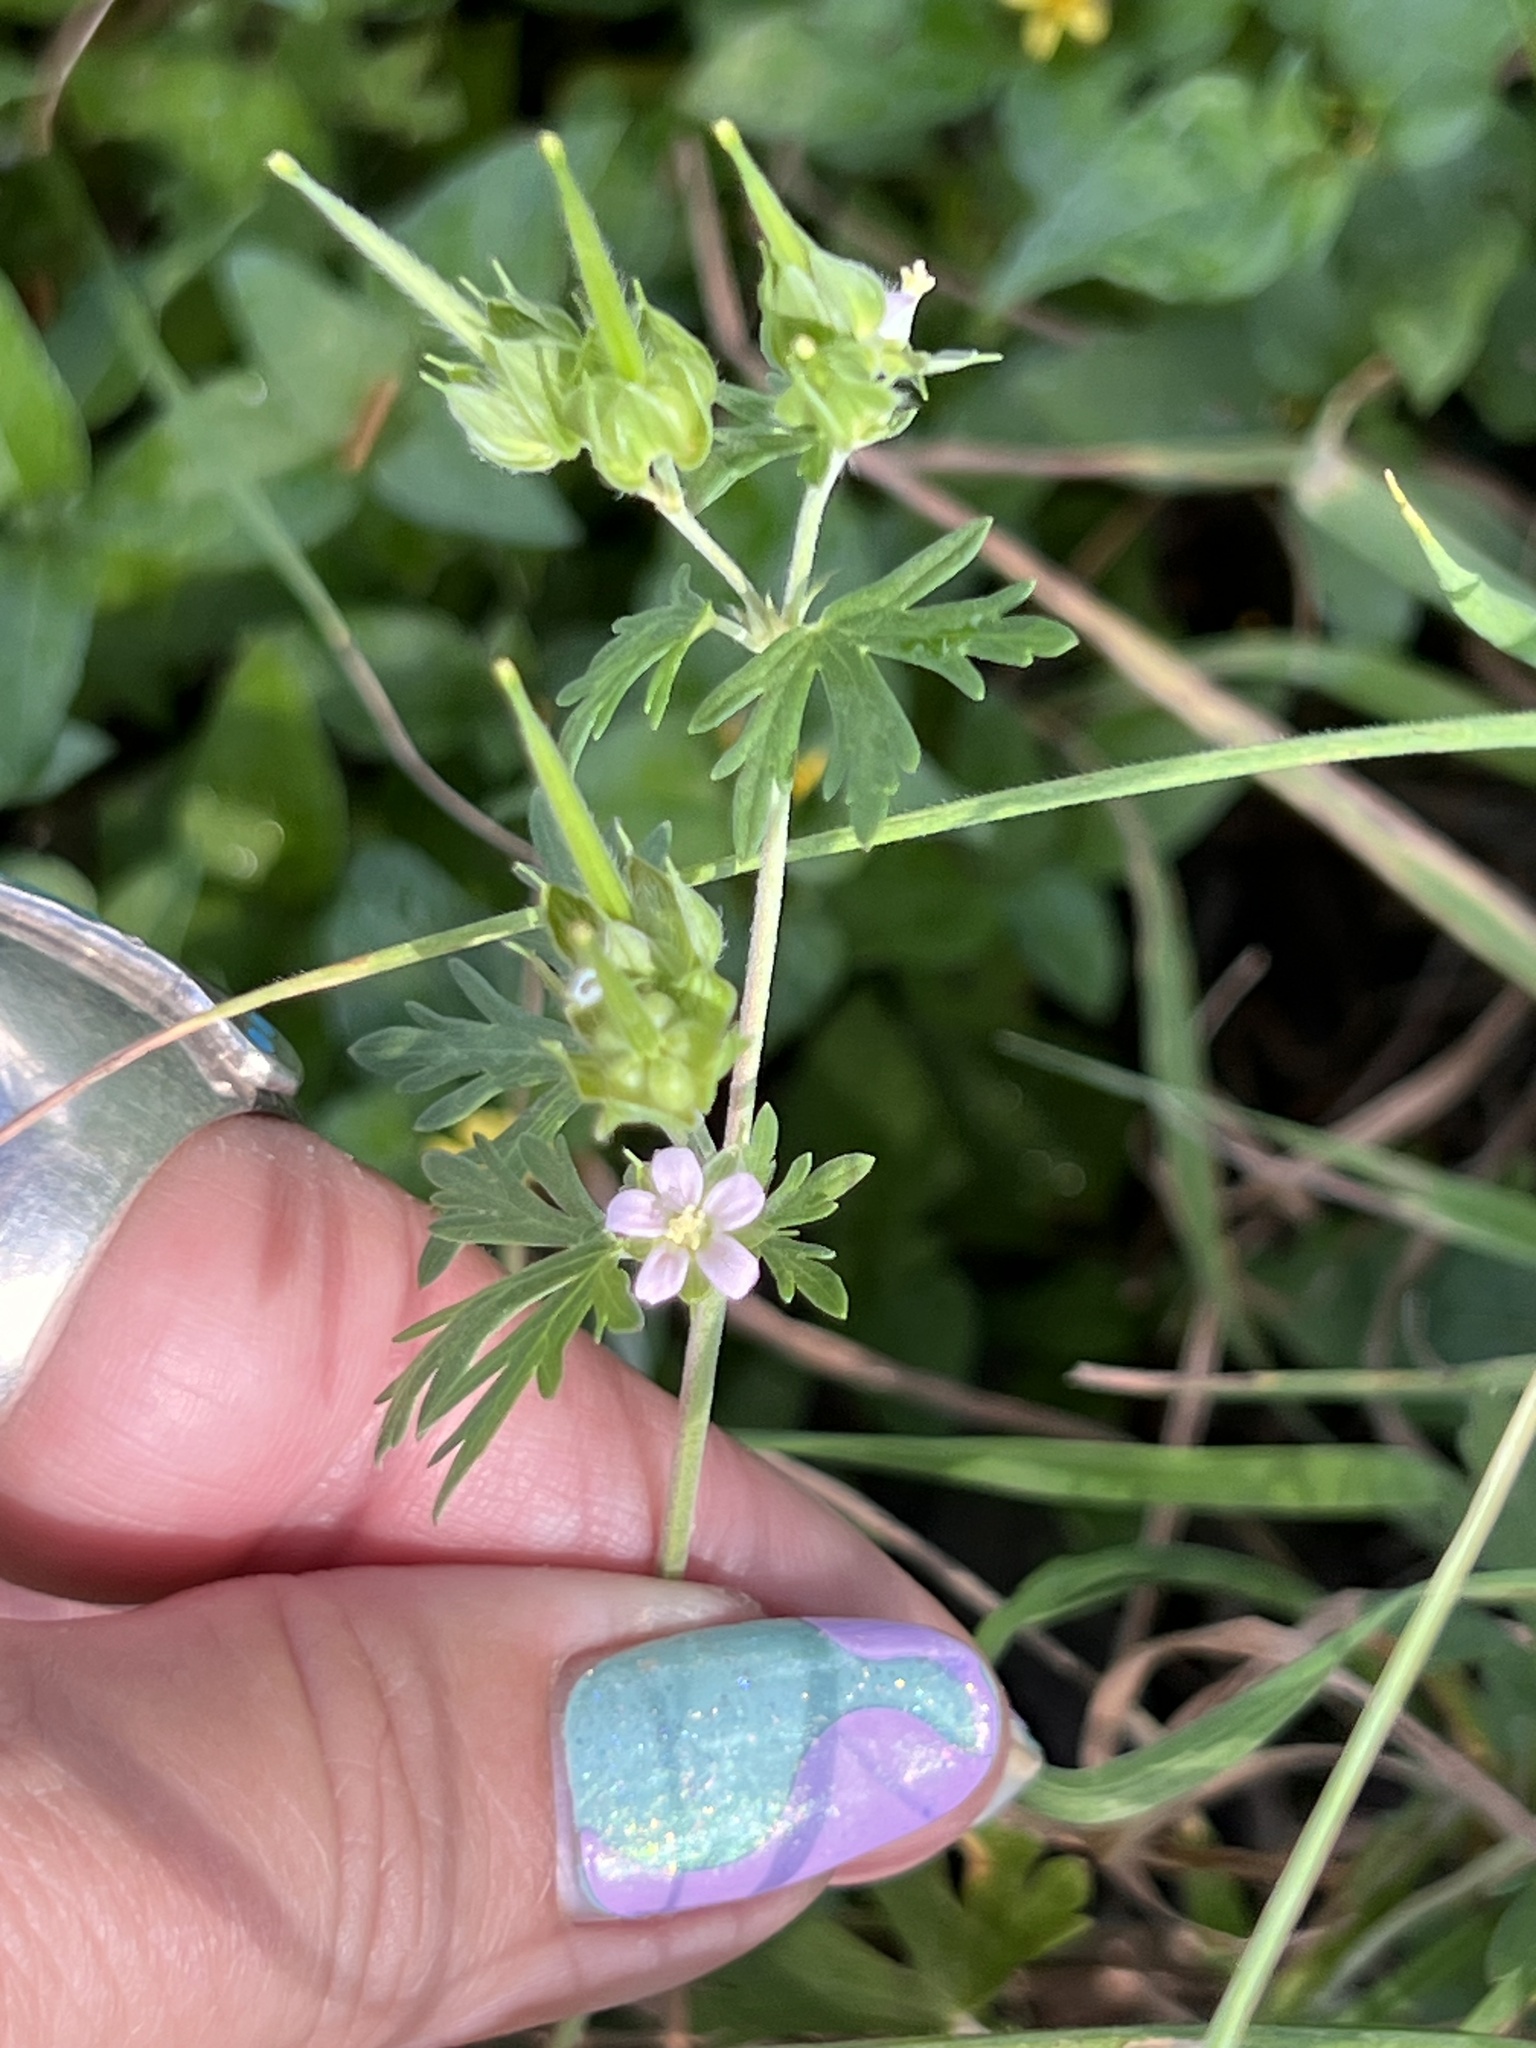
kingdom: Plantae
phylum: Tracheophyta
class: Magnoliopsida
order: Geraniales
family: Geraniaceae
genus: Geranium
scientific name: Geranium carolinianum
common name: Carolina crane's-bill
